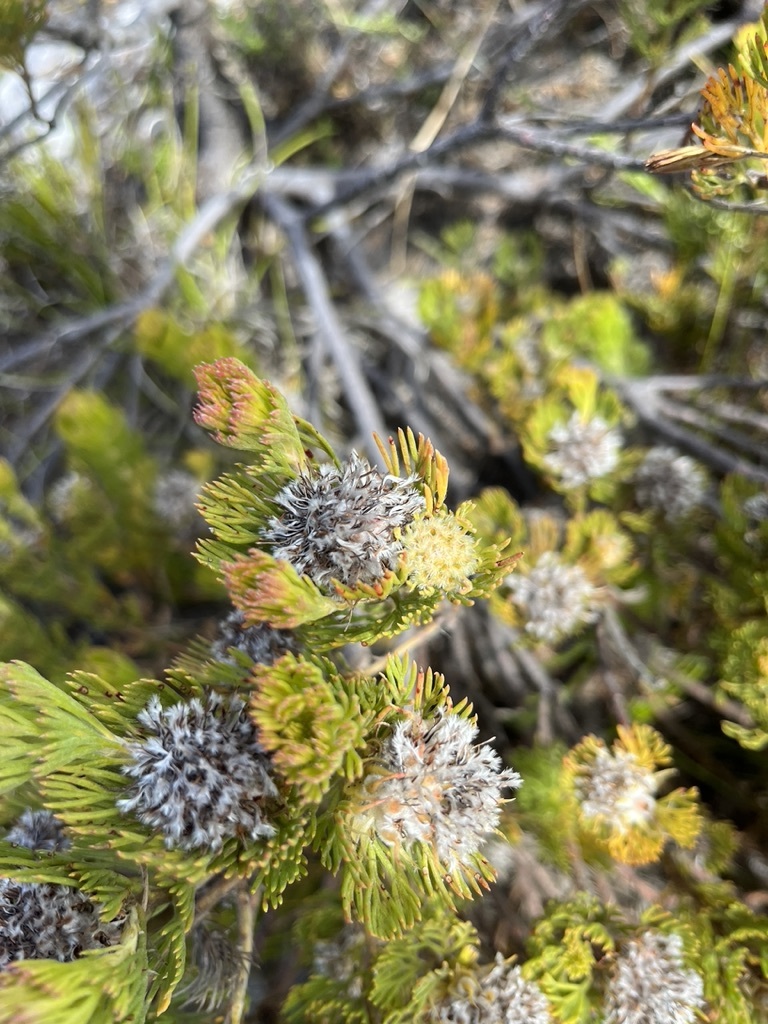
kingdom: Plantae
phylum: Tracheophyta
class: Magnoliopsida
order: Proteales
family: Proteaceae
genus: Serruria
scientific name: Serruria villosa
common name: Golden spiderhead
